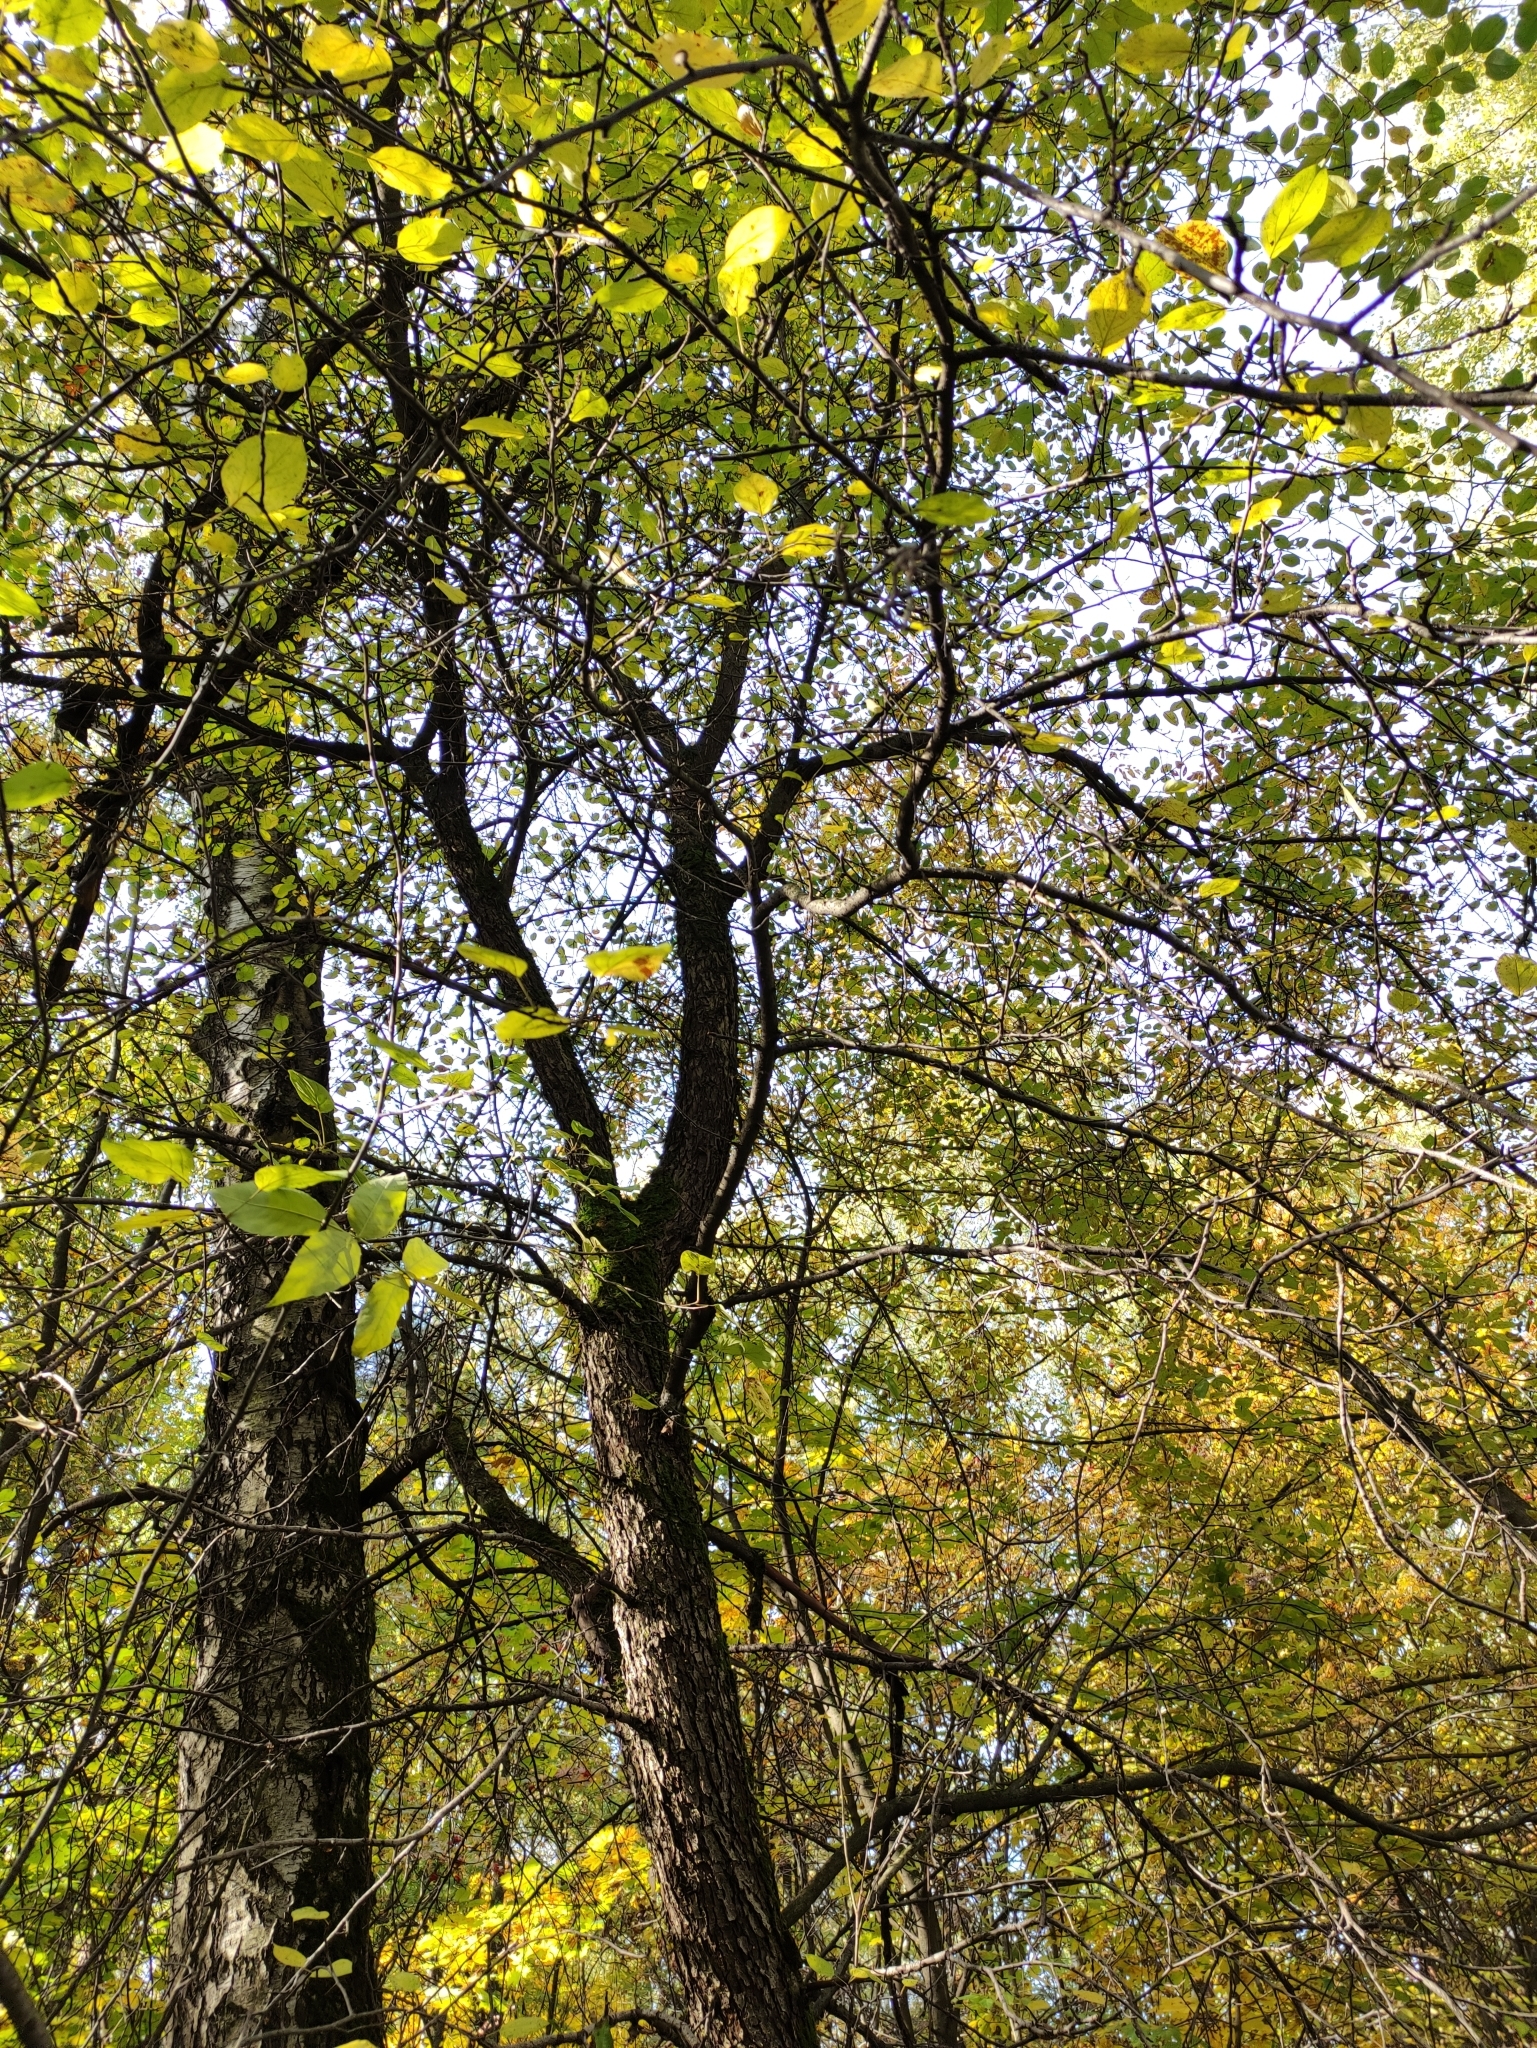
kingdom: Plantae
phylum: Tracheophyta
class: Magnoliopsida
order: Rosales
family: Rosaceae
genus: Malus
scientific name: Malus sylvestris
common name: Crab apple
